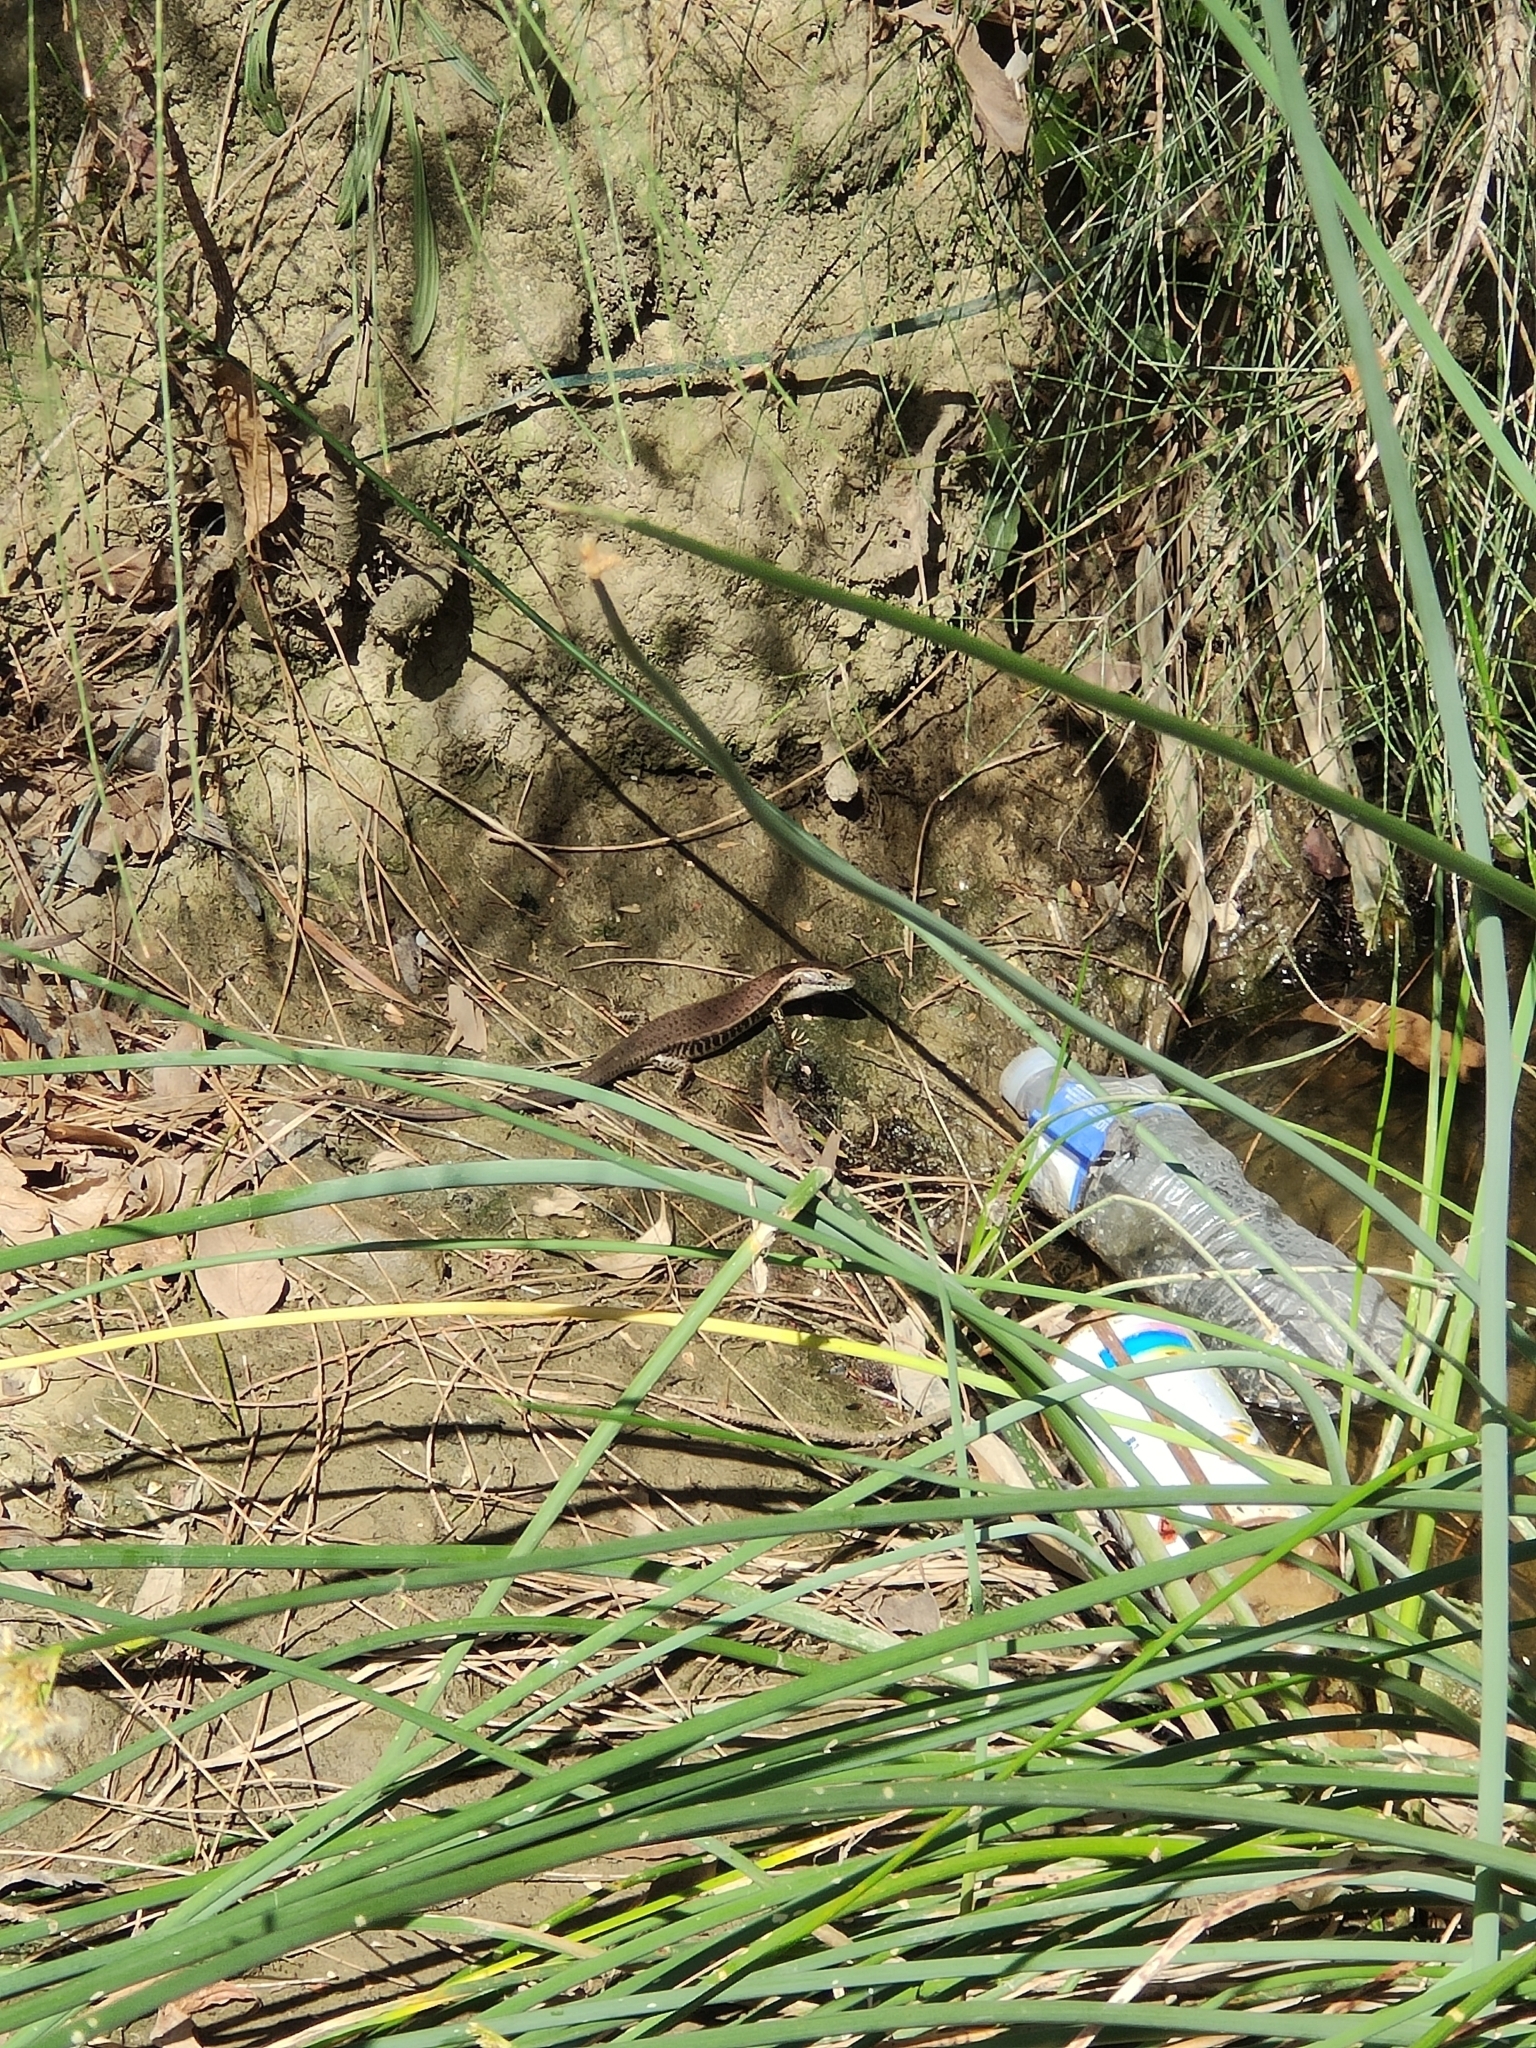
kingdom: Animalia
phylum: Chordata
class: Squamata
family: Scincidae
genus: Eulamprus
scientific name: Eulamprus quoyii
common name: Eastern water skink
